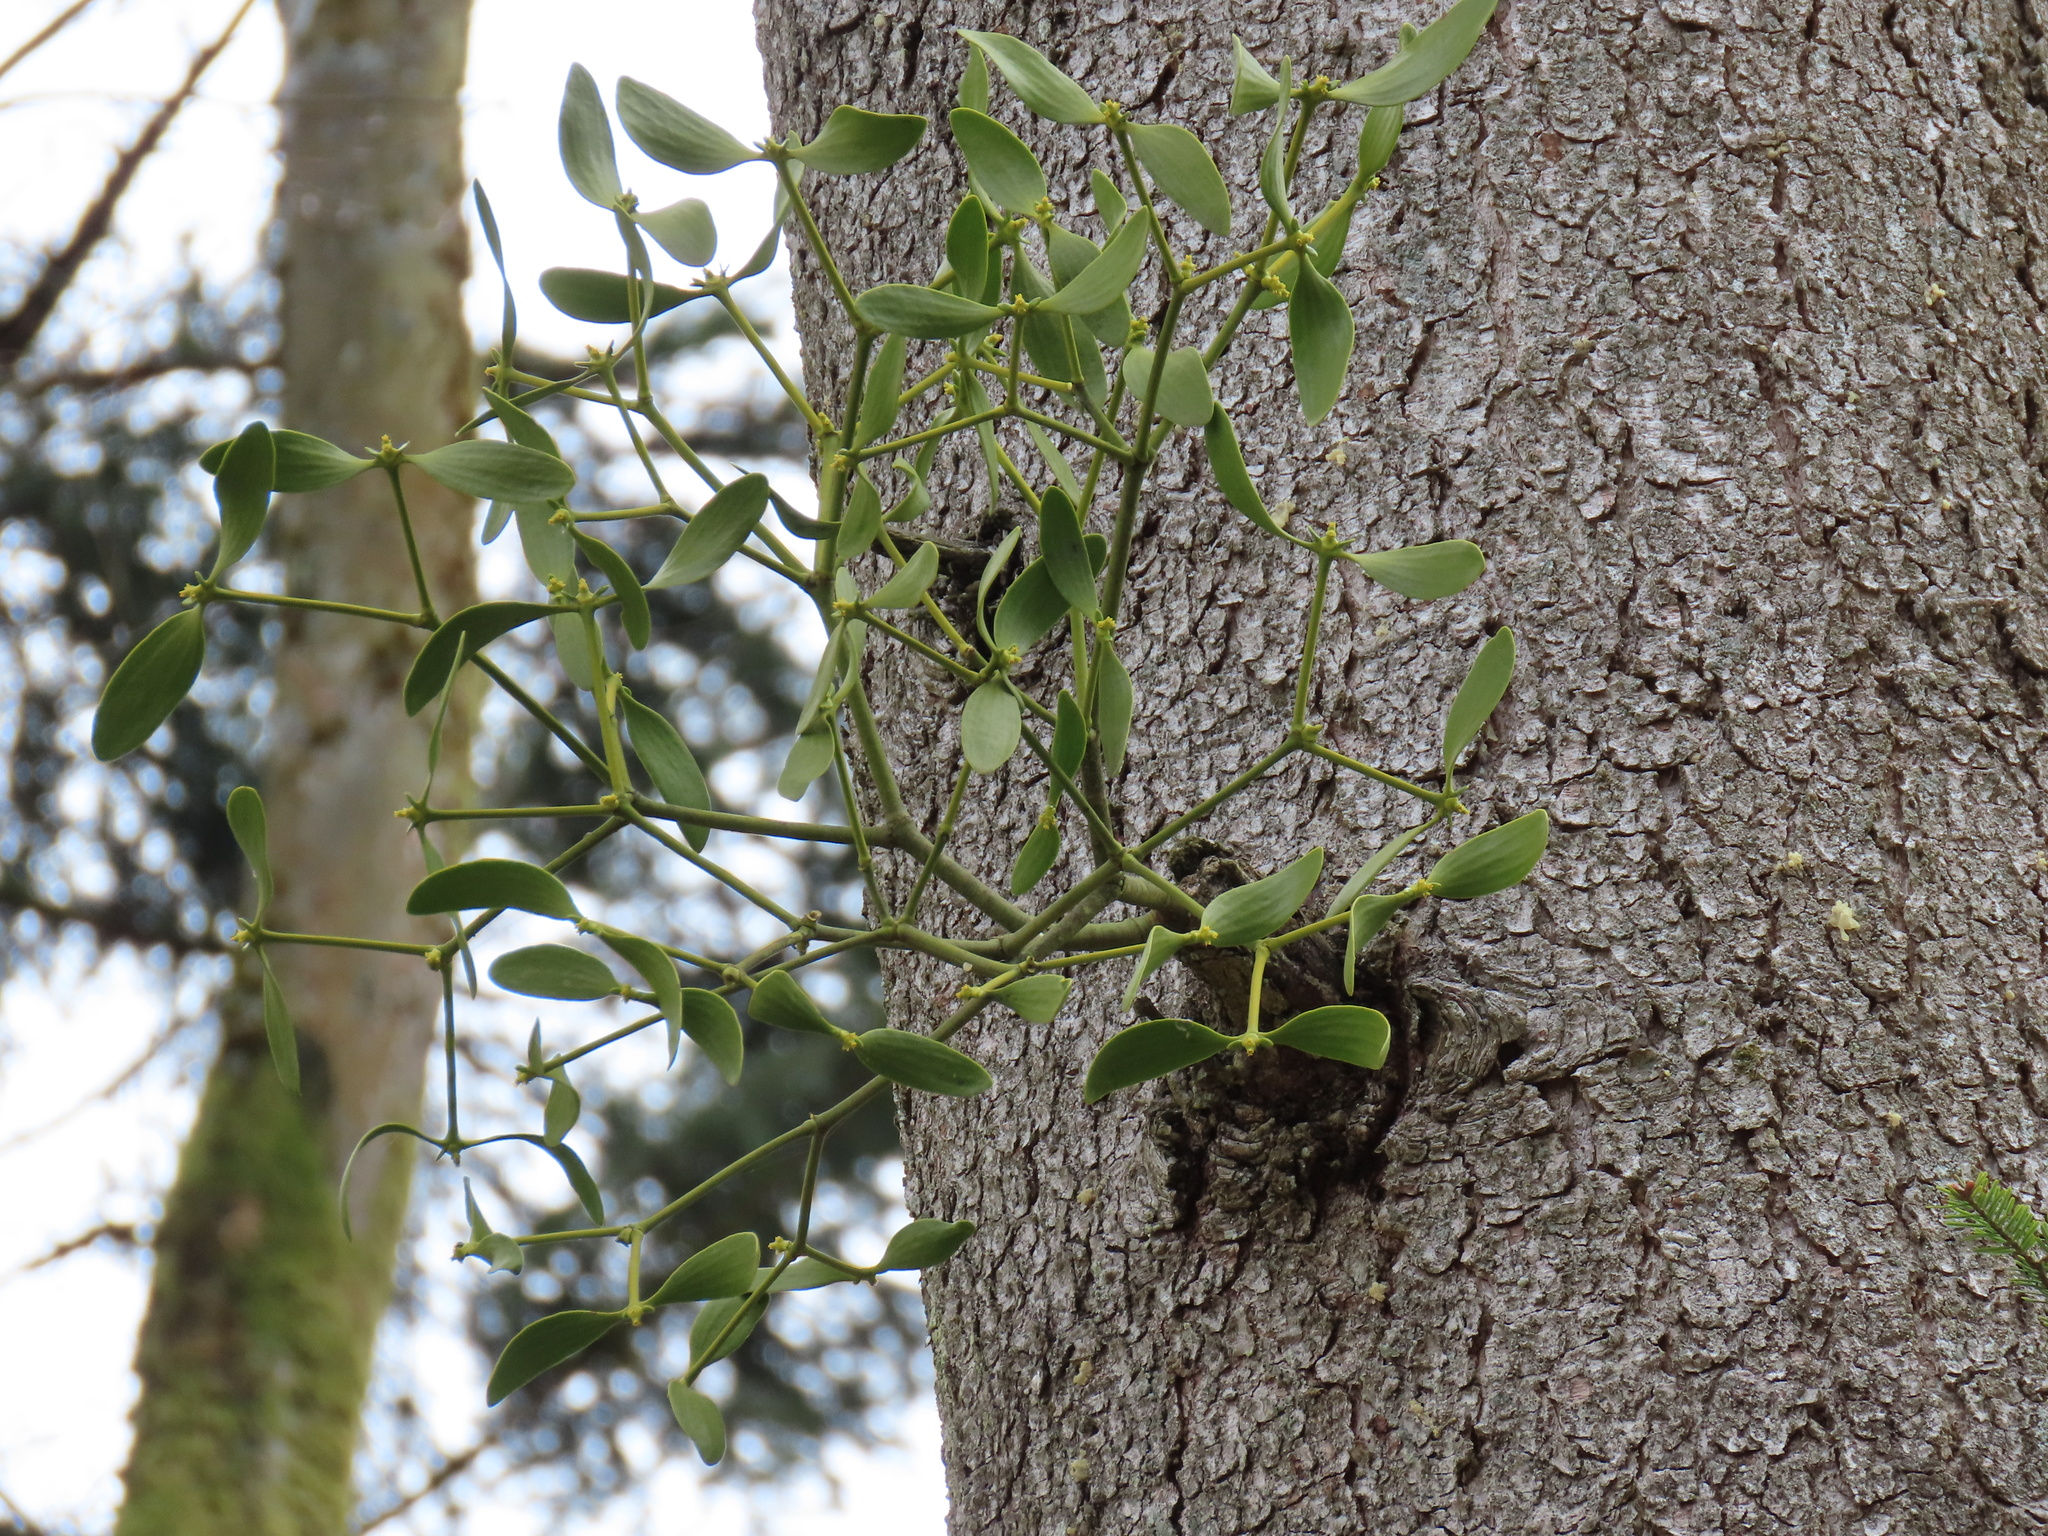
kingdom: Plantae
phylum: Tracheophyta
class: Magnoliopsida
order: Santalales
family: Viscaceae
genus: Viscum
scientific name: Viscum album
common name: Mistletoe
